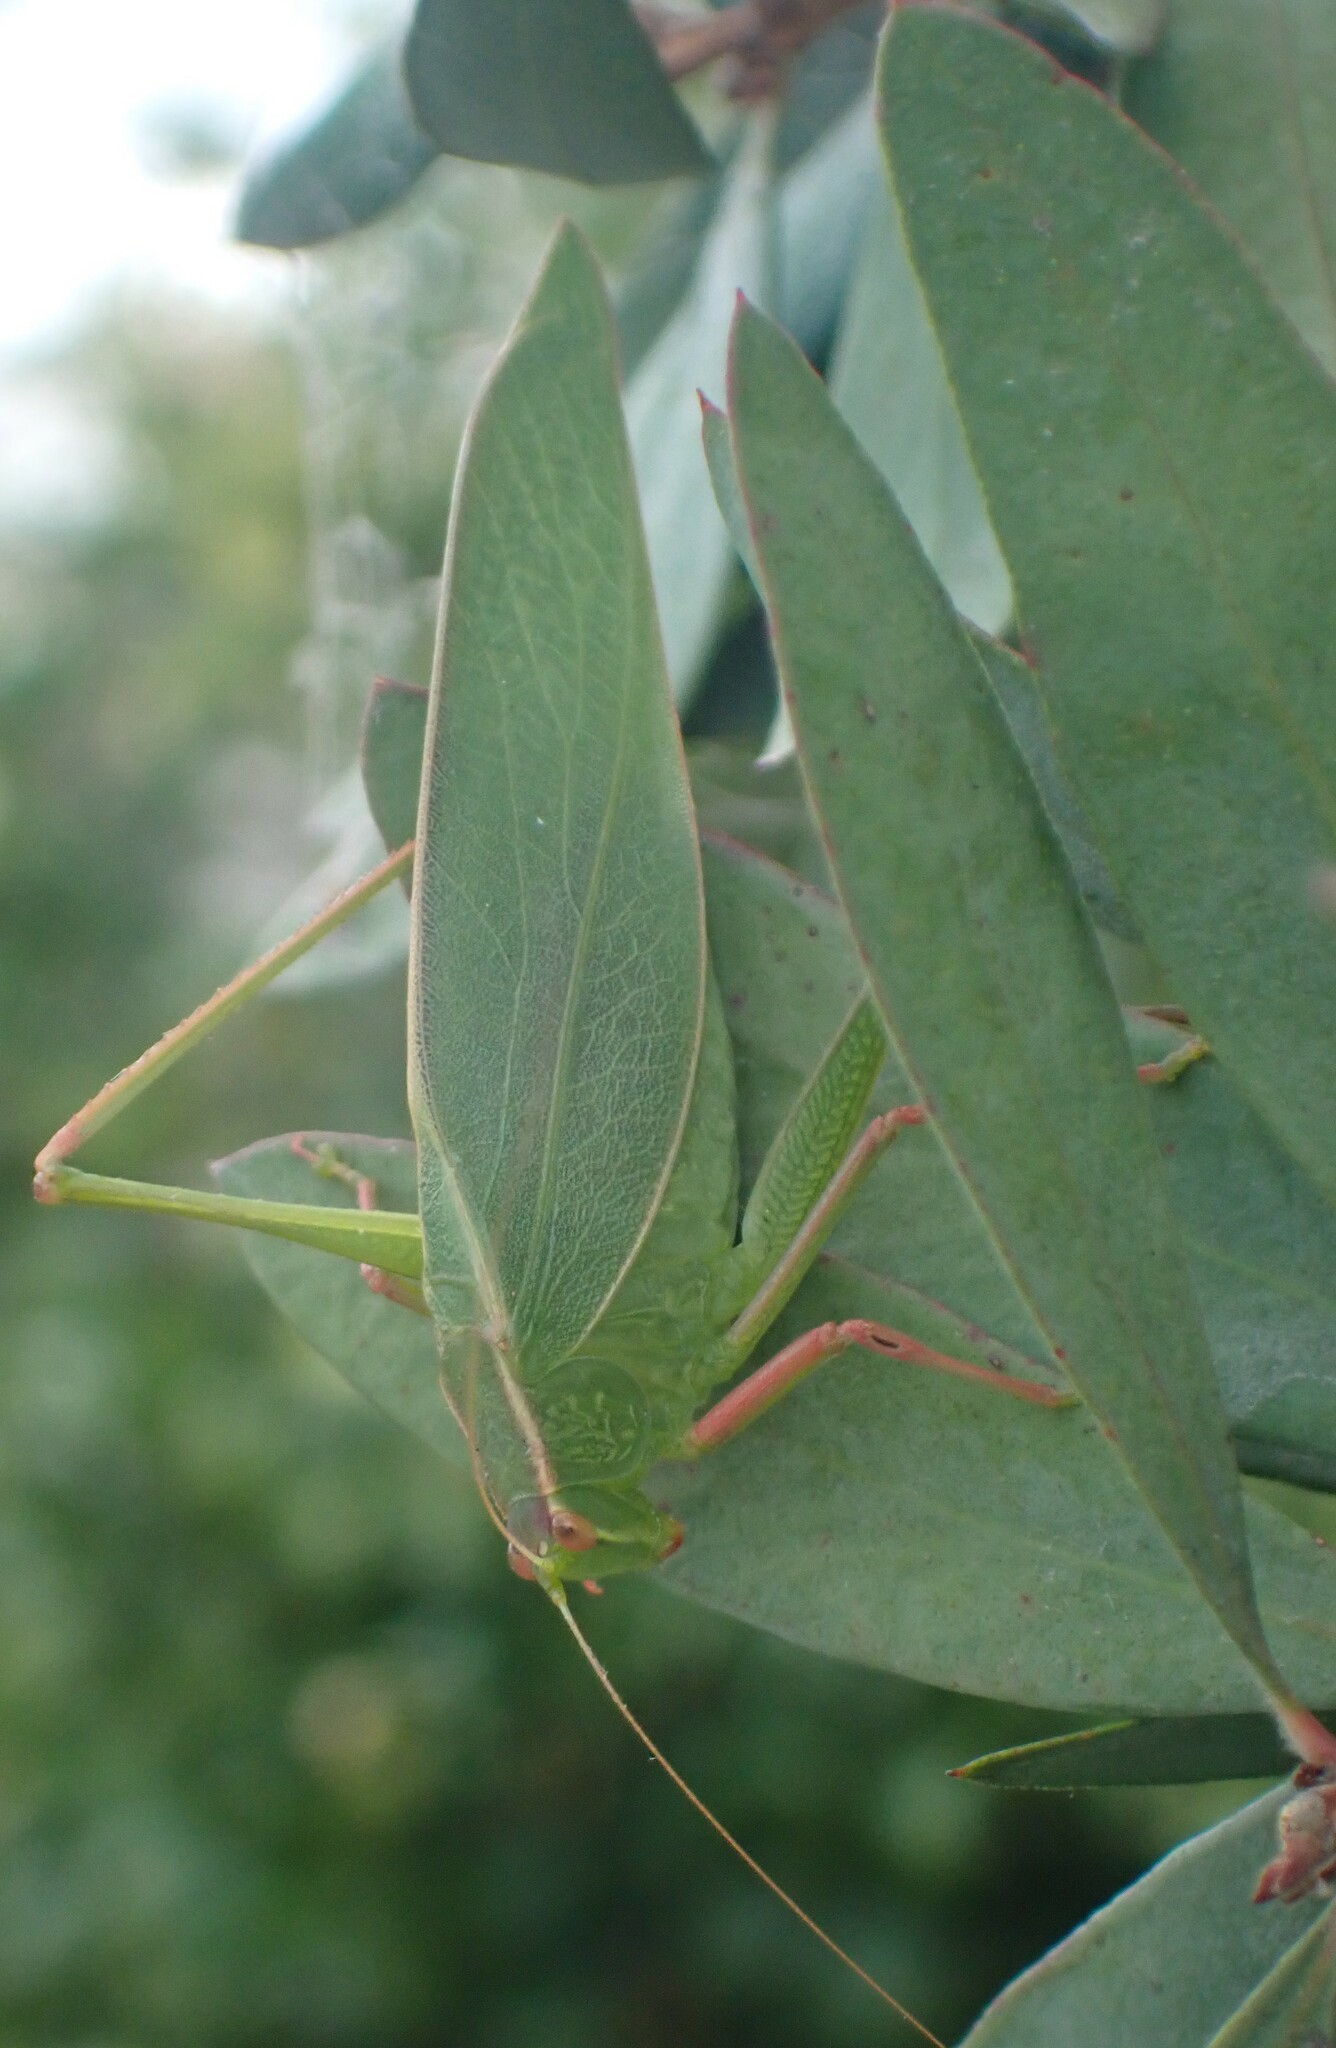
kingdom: Animalia
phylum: Arthropoda
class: Insecta
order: Orthoptera
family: Tettigoniidae
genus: Caedicia
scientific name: Caedicia simplex
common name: Common garden katydid
